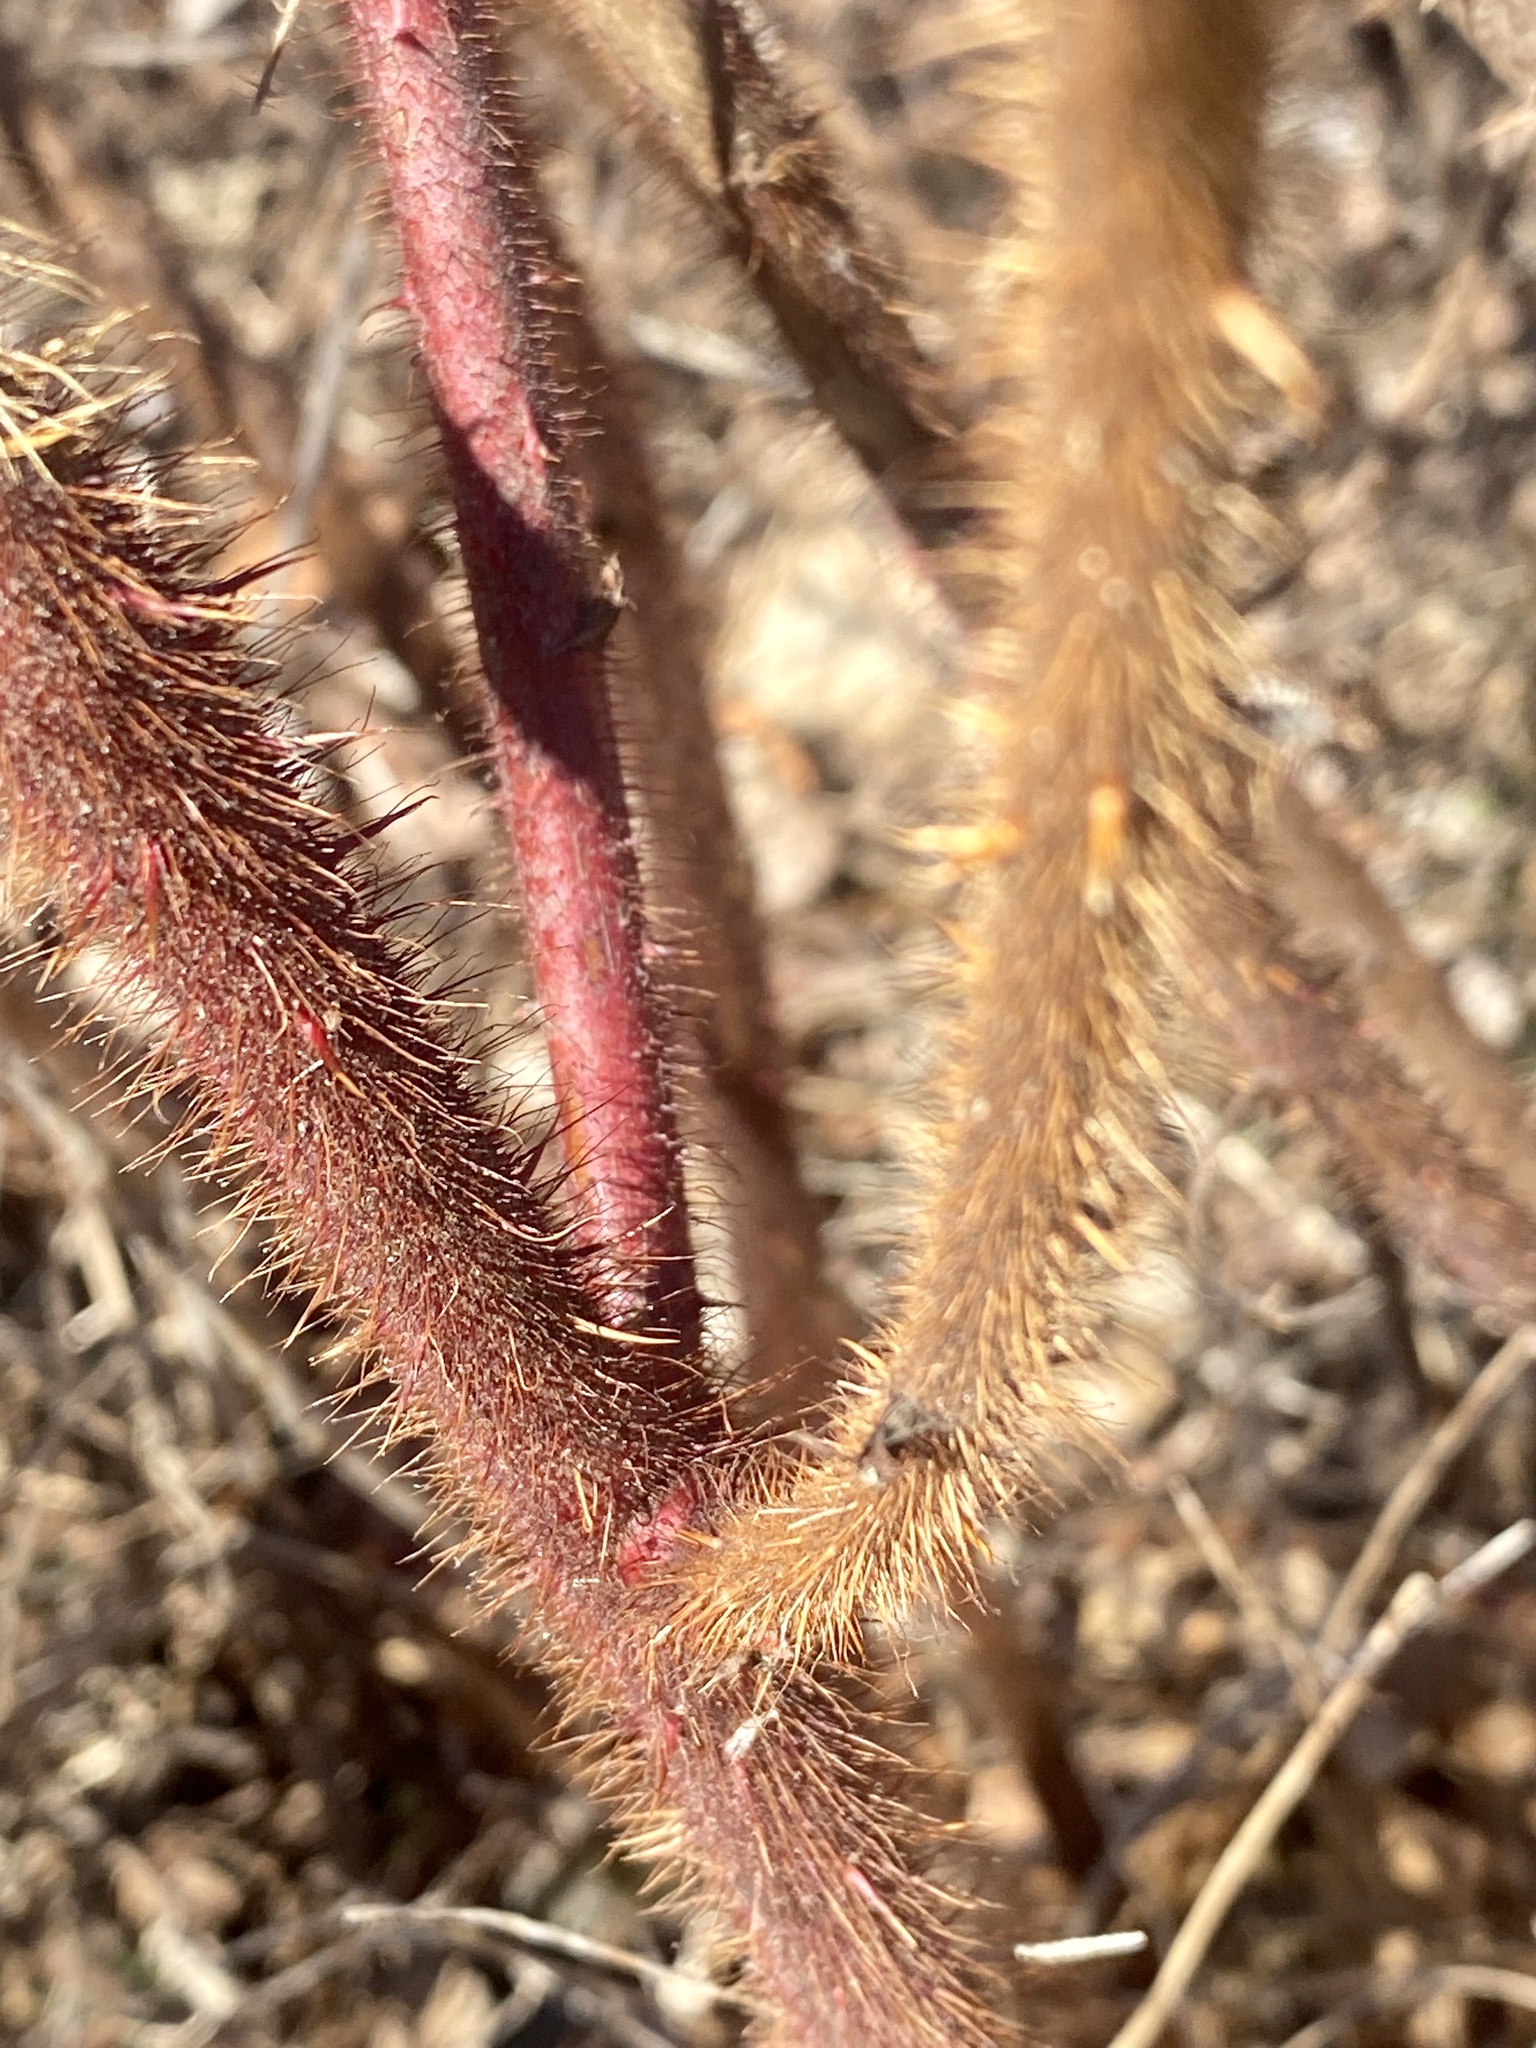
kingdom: Plantae
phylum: Tracheophyta
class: Magnoliopsida
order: Rosales
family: Rosaceae
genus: Rubus
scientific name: Rubus phoenicolasius
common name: Japanese wineberry
